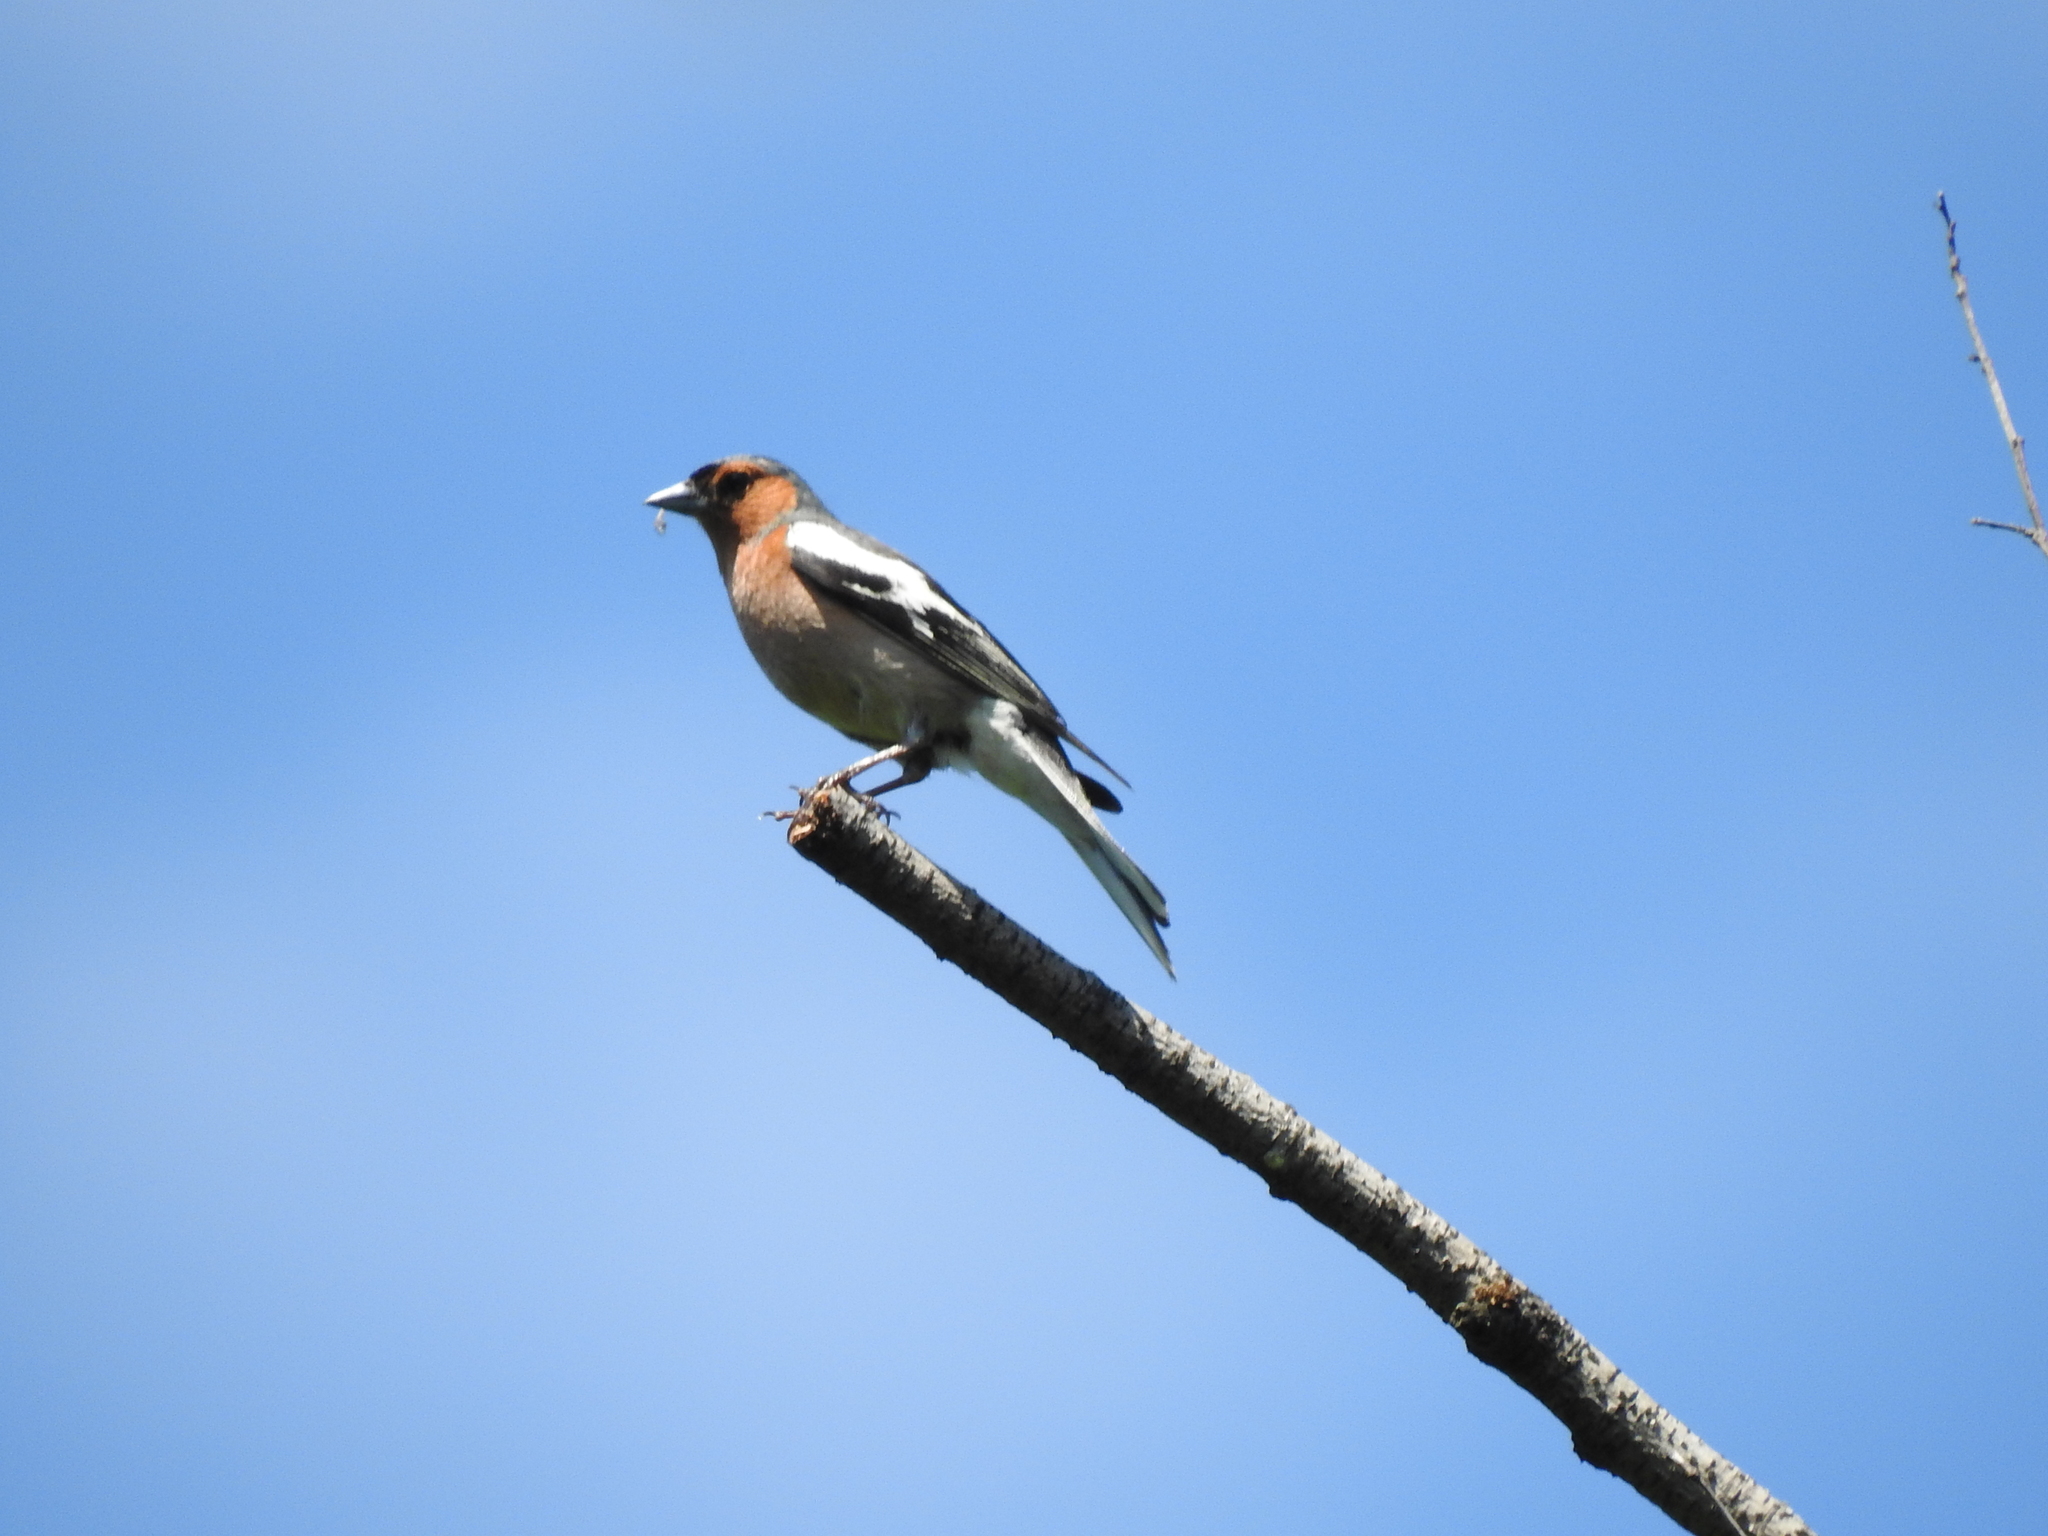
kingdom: Animalia
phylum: Chordata
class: Aves
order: Passeriformes
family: Fringillidae
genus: Fringilla
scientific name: Fringilla coelebs
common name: Common chaffinch
